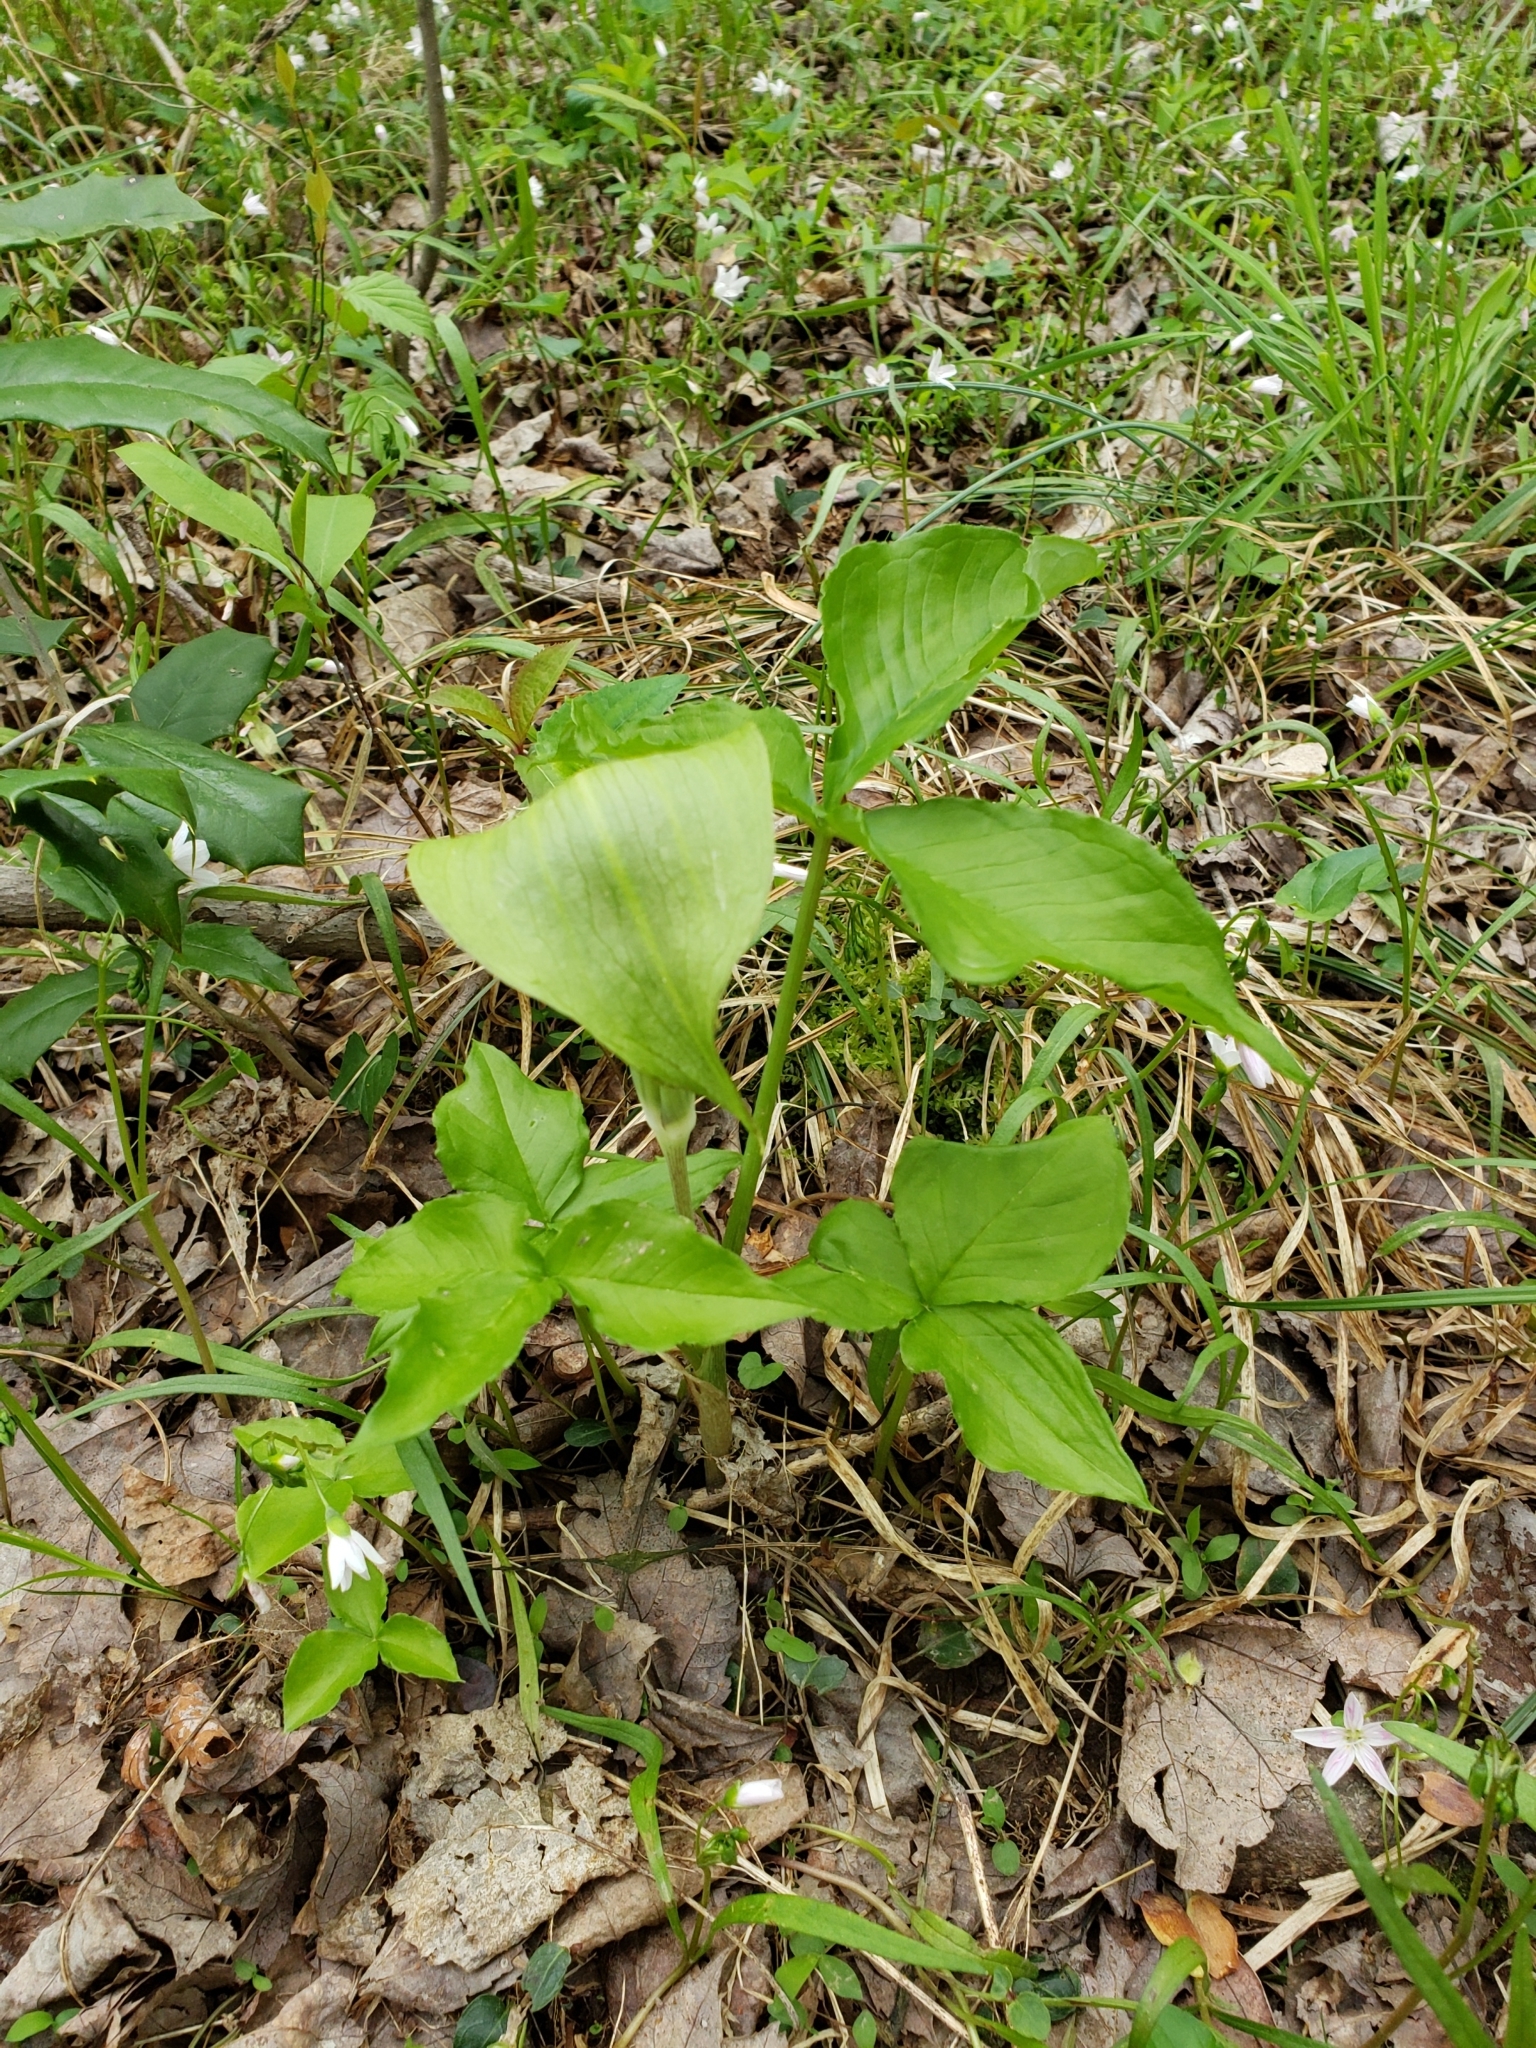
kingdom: Plantae
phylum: Tracheophyta
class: Liliopsida
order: Alismatales
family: Araceae
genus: Arisaema
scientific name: Arisaema triphyllum
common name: Jack-in-the-pulpit
